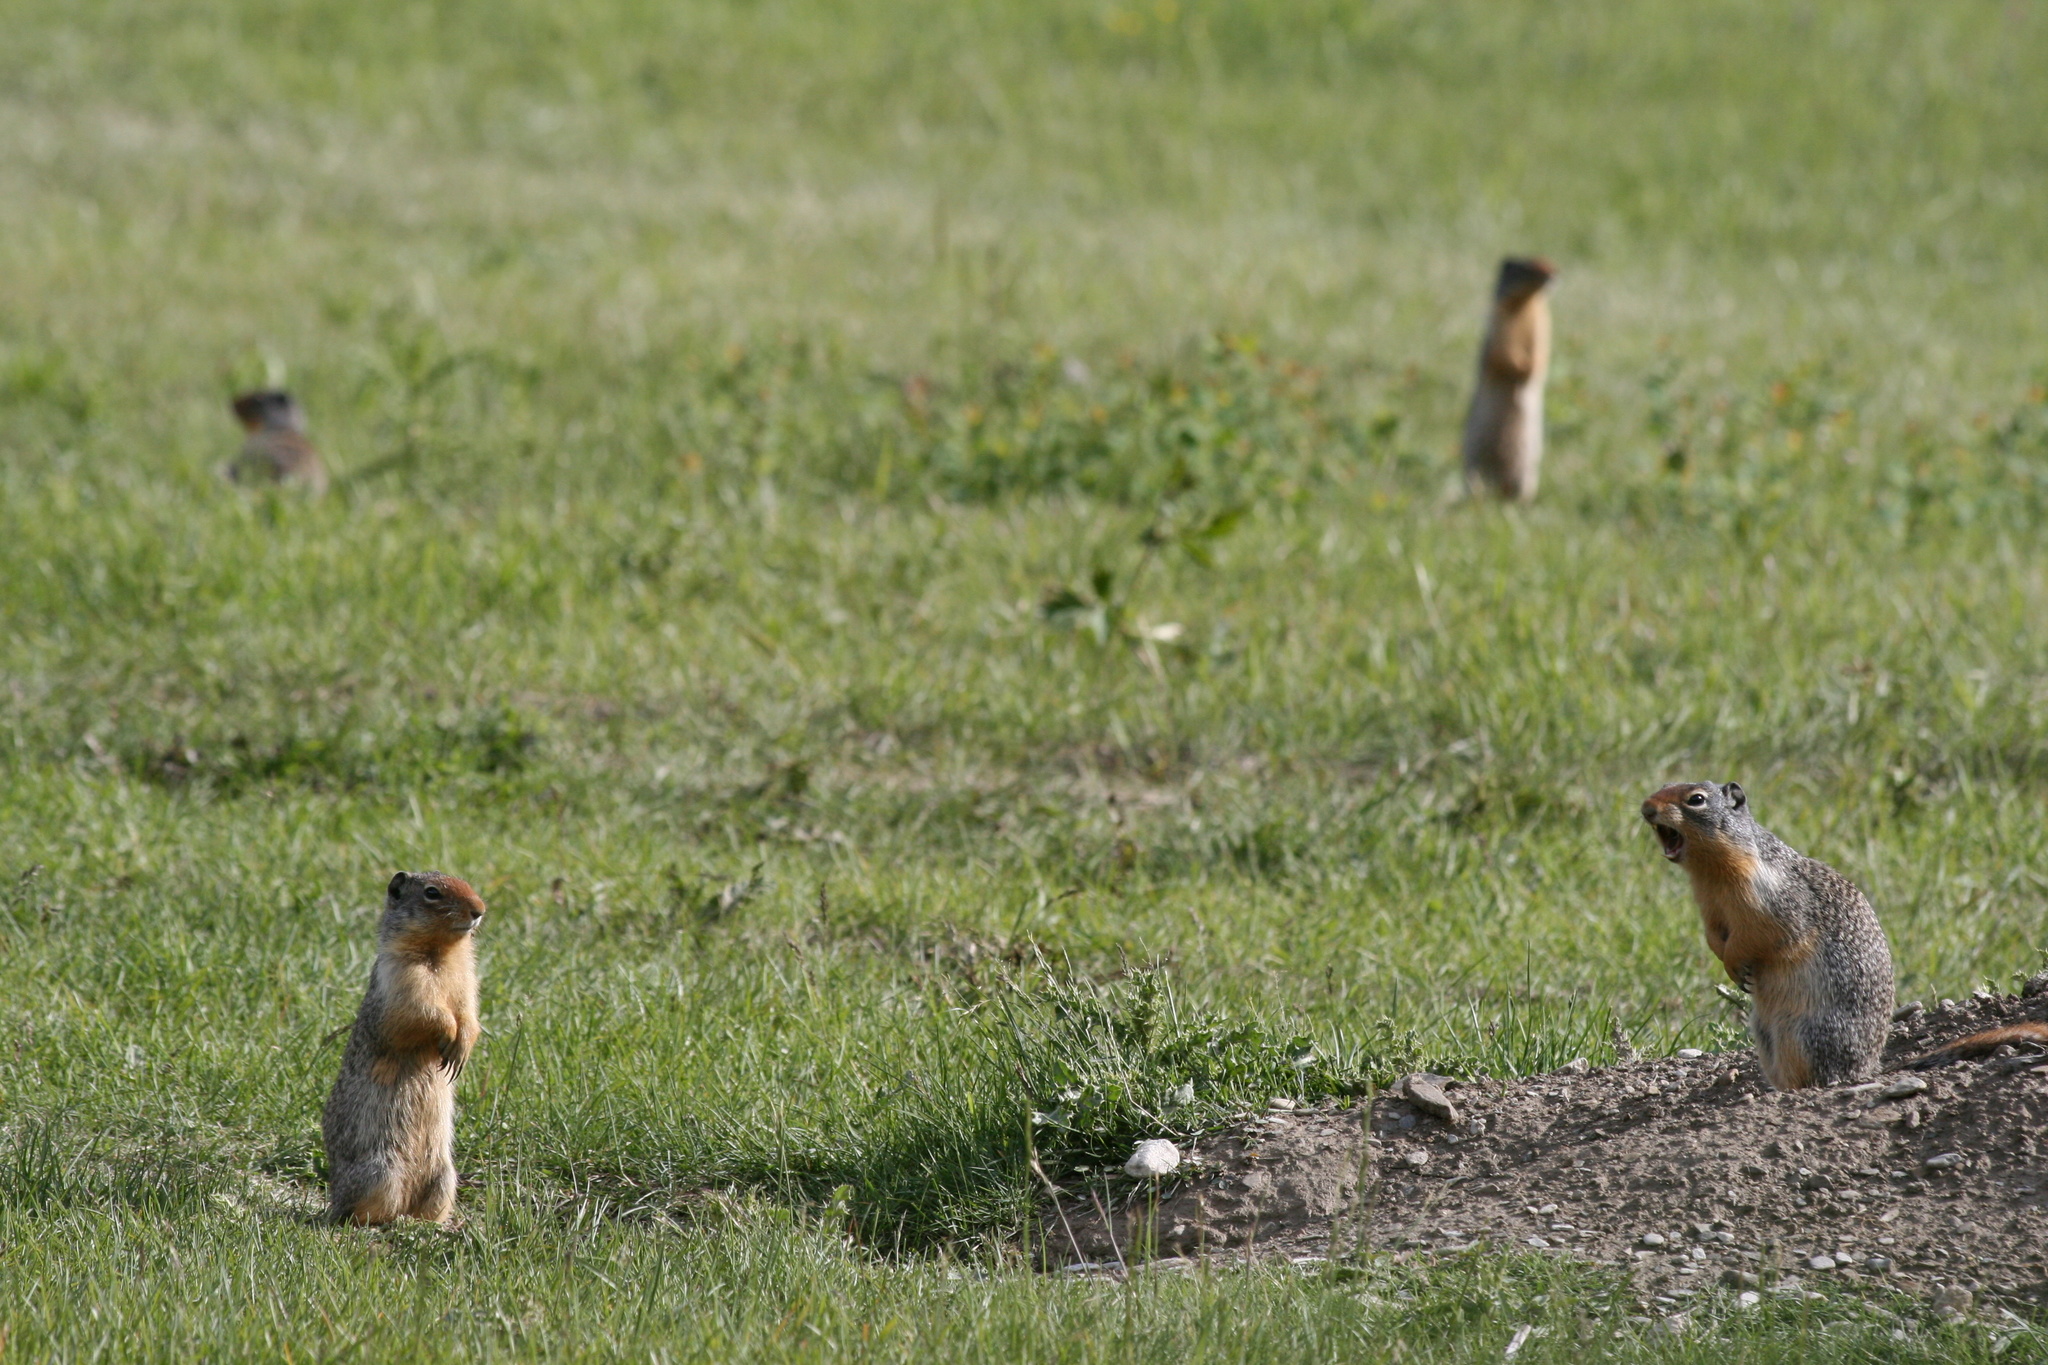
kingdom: Animalia
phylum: Chordata
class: Mammalia
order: Rodentia
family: Sciuridae
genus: Urocitellus
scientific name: Urocitellus columbianus
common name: Columbian ground squirrel
